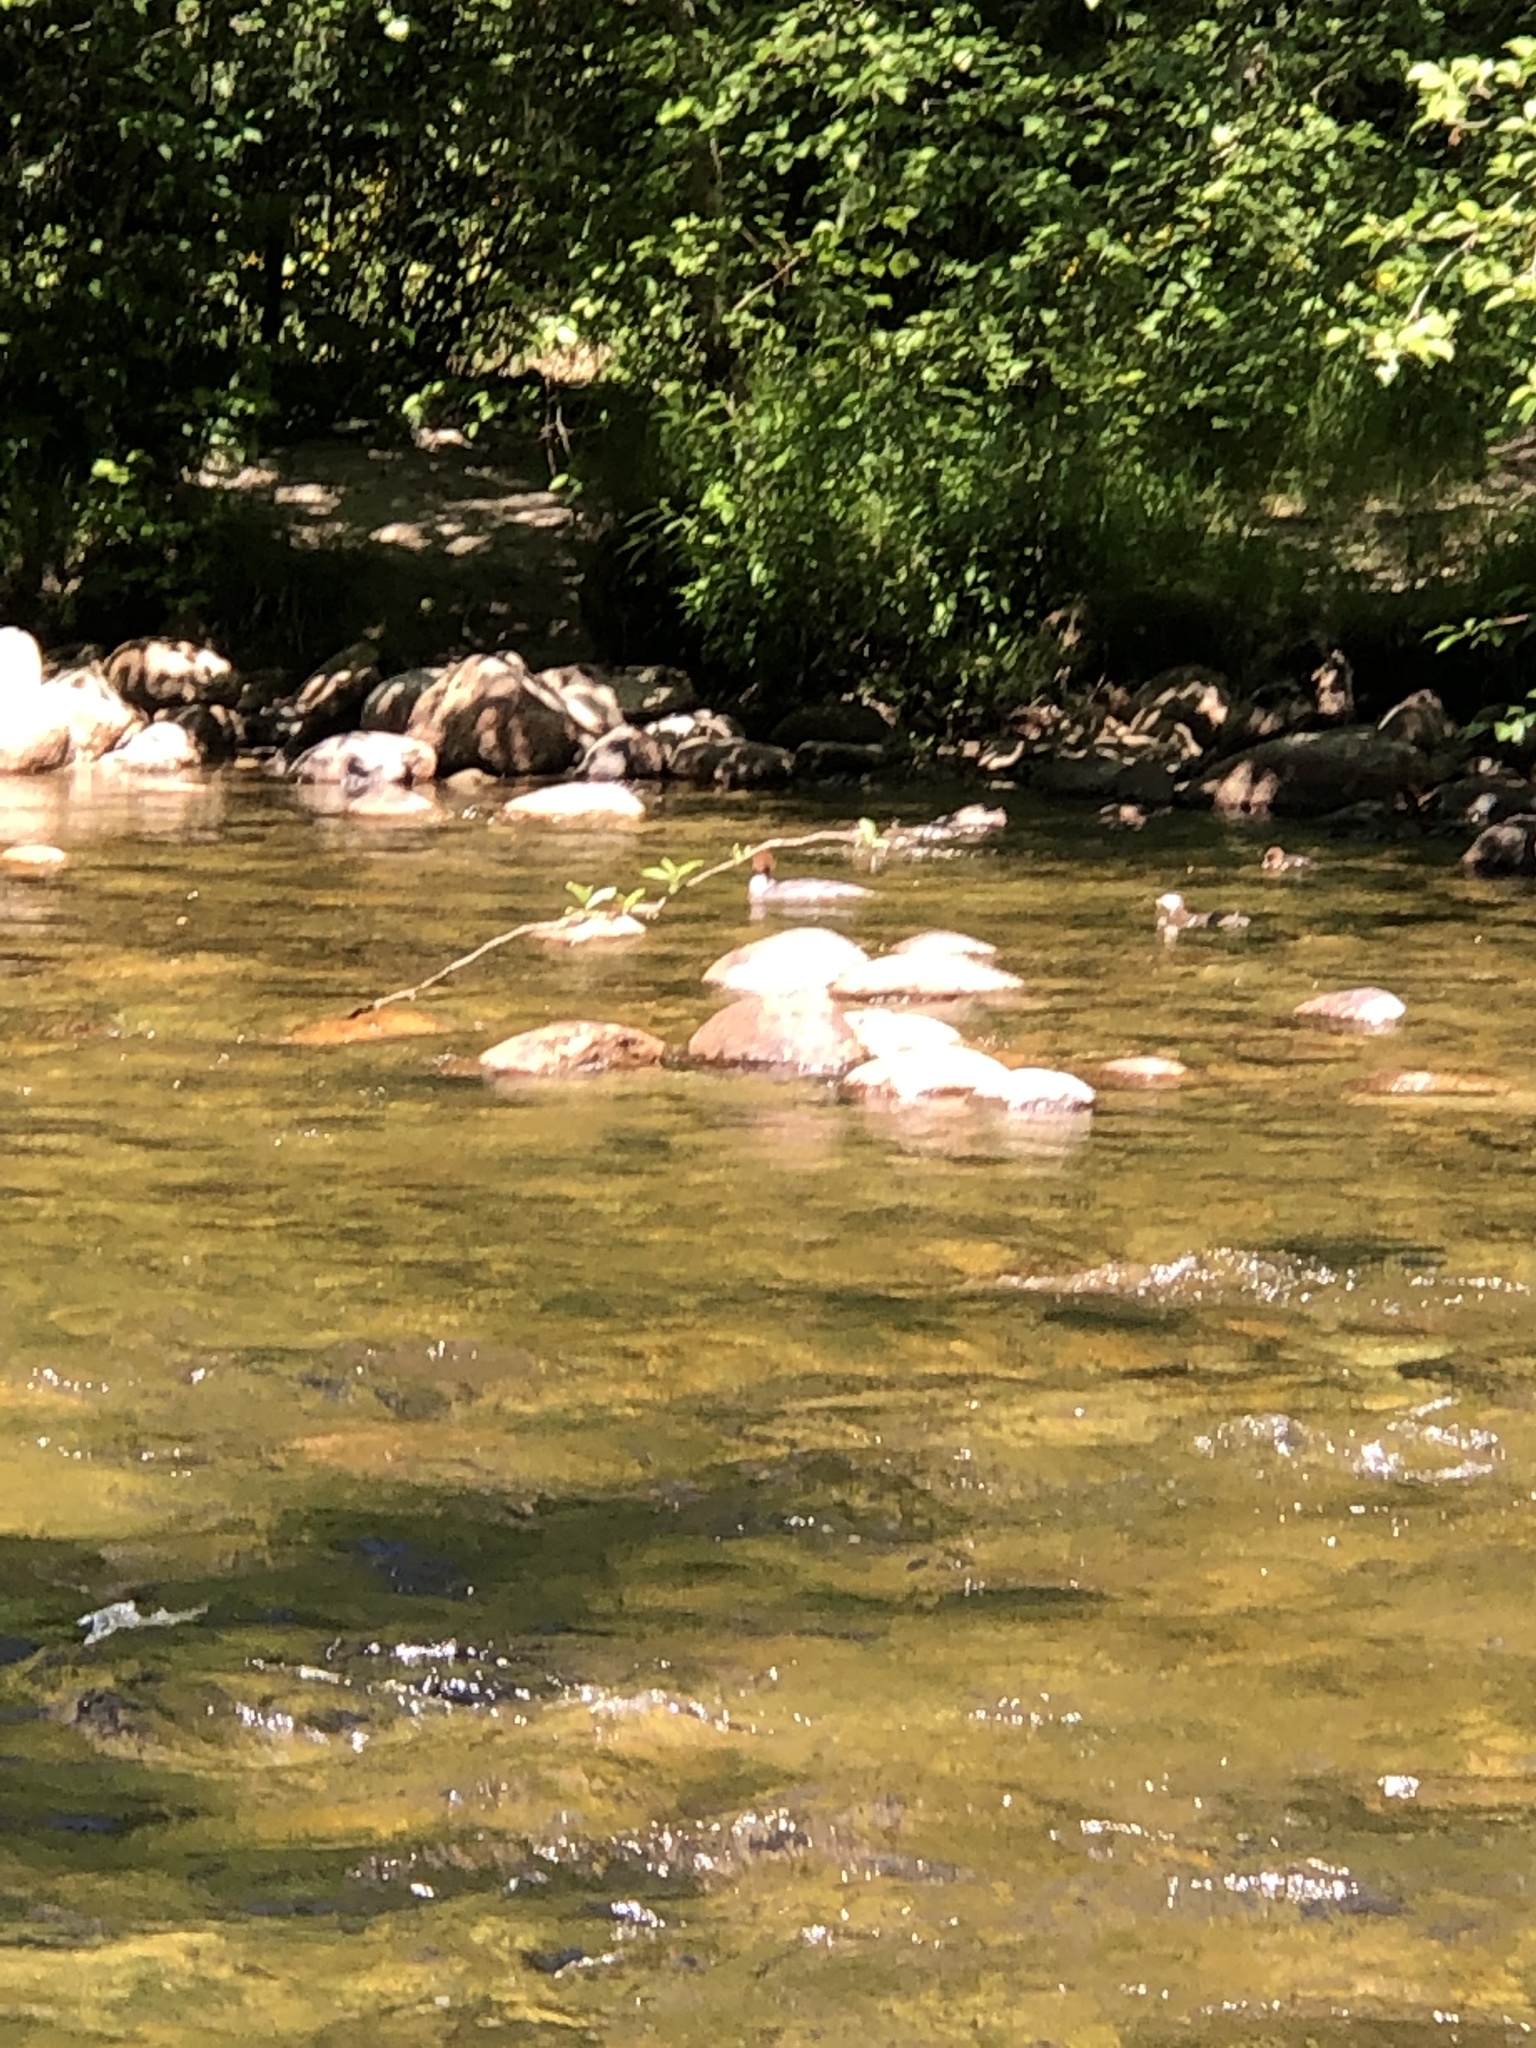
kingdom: Animalia
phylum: Chordata
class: Aves
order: Anseriformes
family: Anatidae
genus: Mergus
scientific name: Mergus merganser
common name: Common merganser
